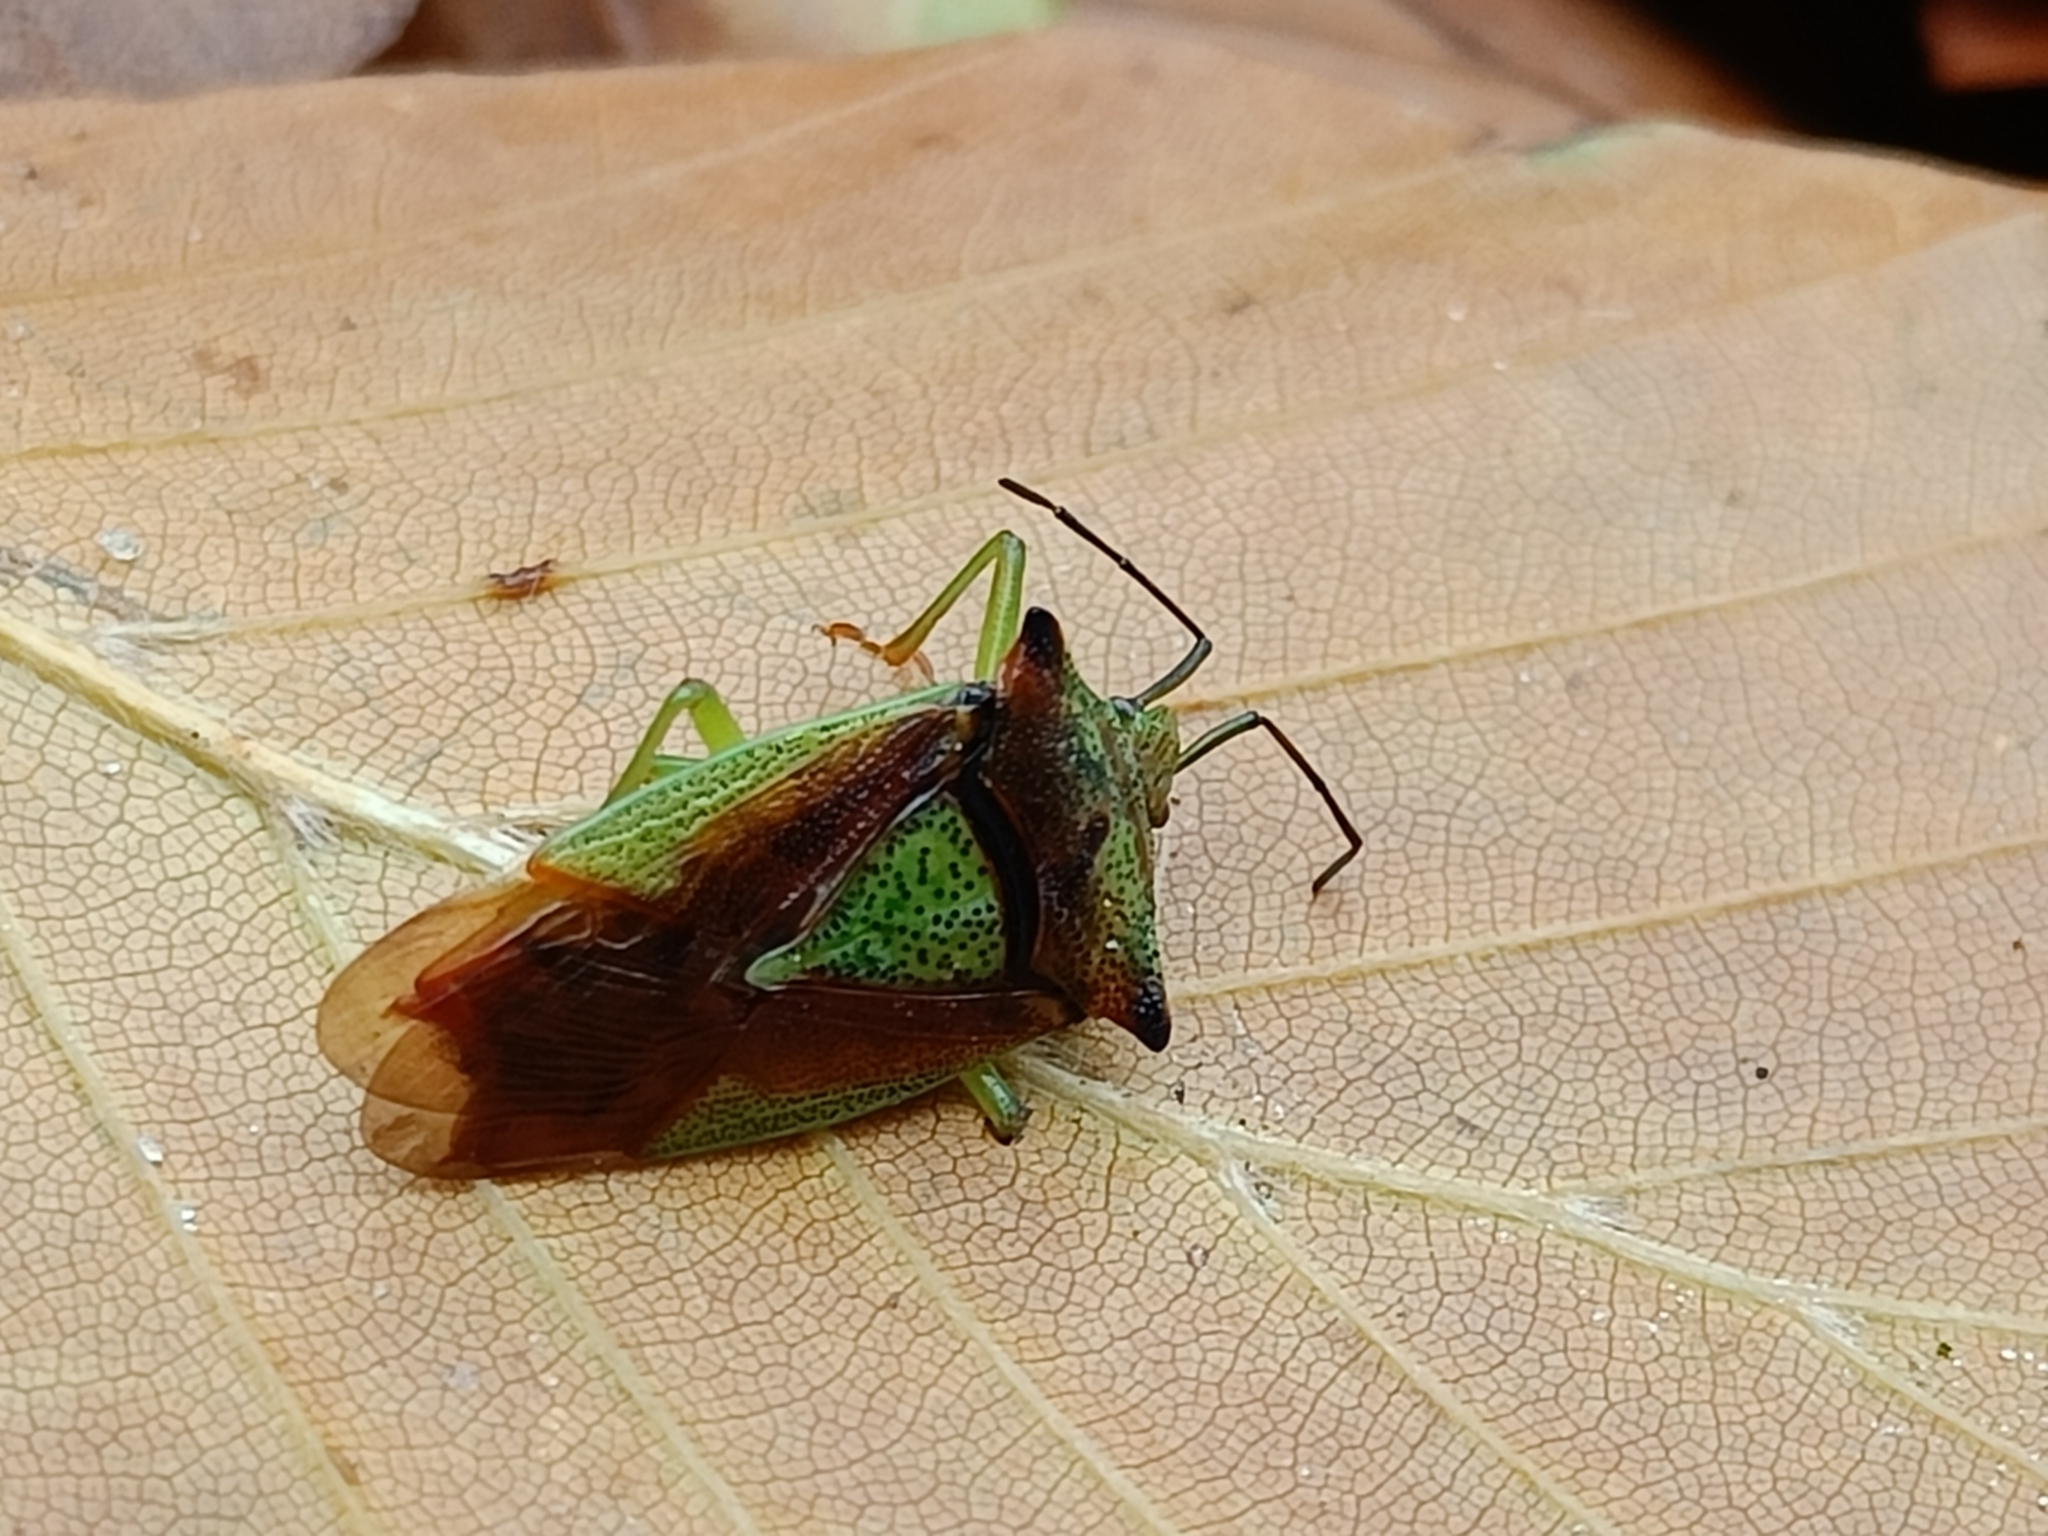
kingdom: Animalia
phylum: Arthropoda
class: Insecta
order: Hemiptera
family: Acanthosomatidae
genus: Acanthosoma
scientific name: Acanthosoma haemorrhoidale
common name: Hawthorn shieldbug
